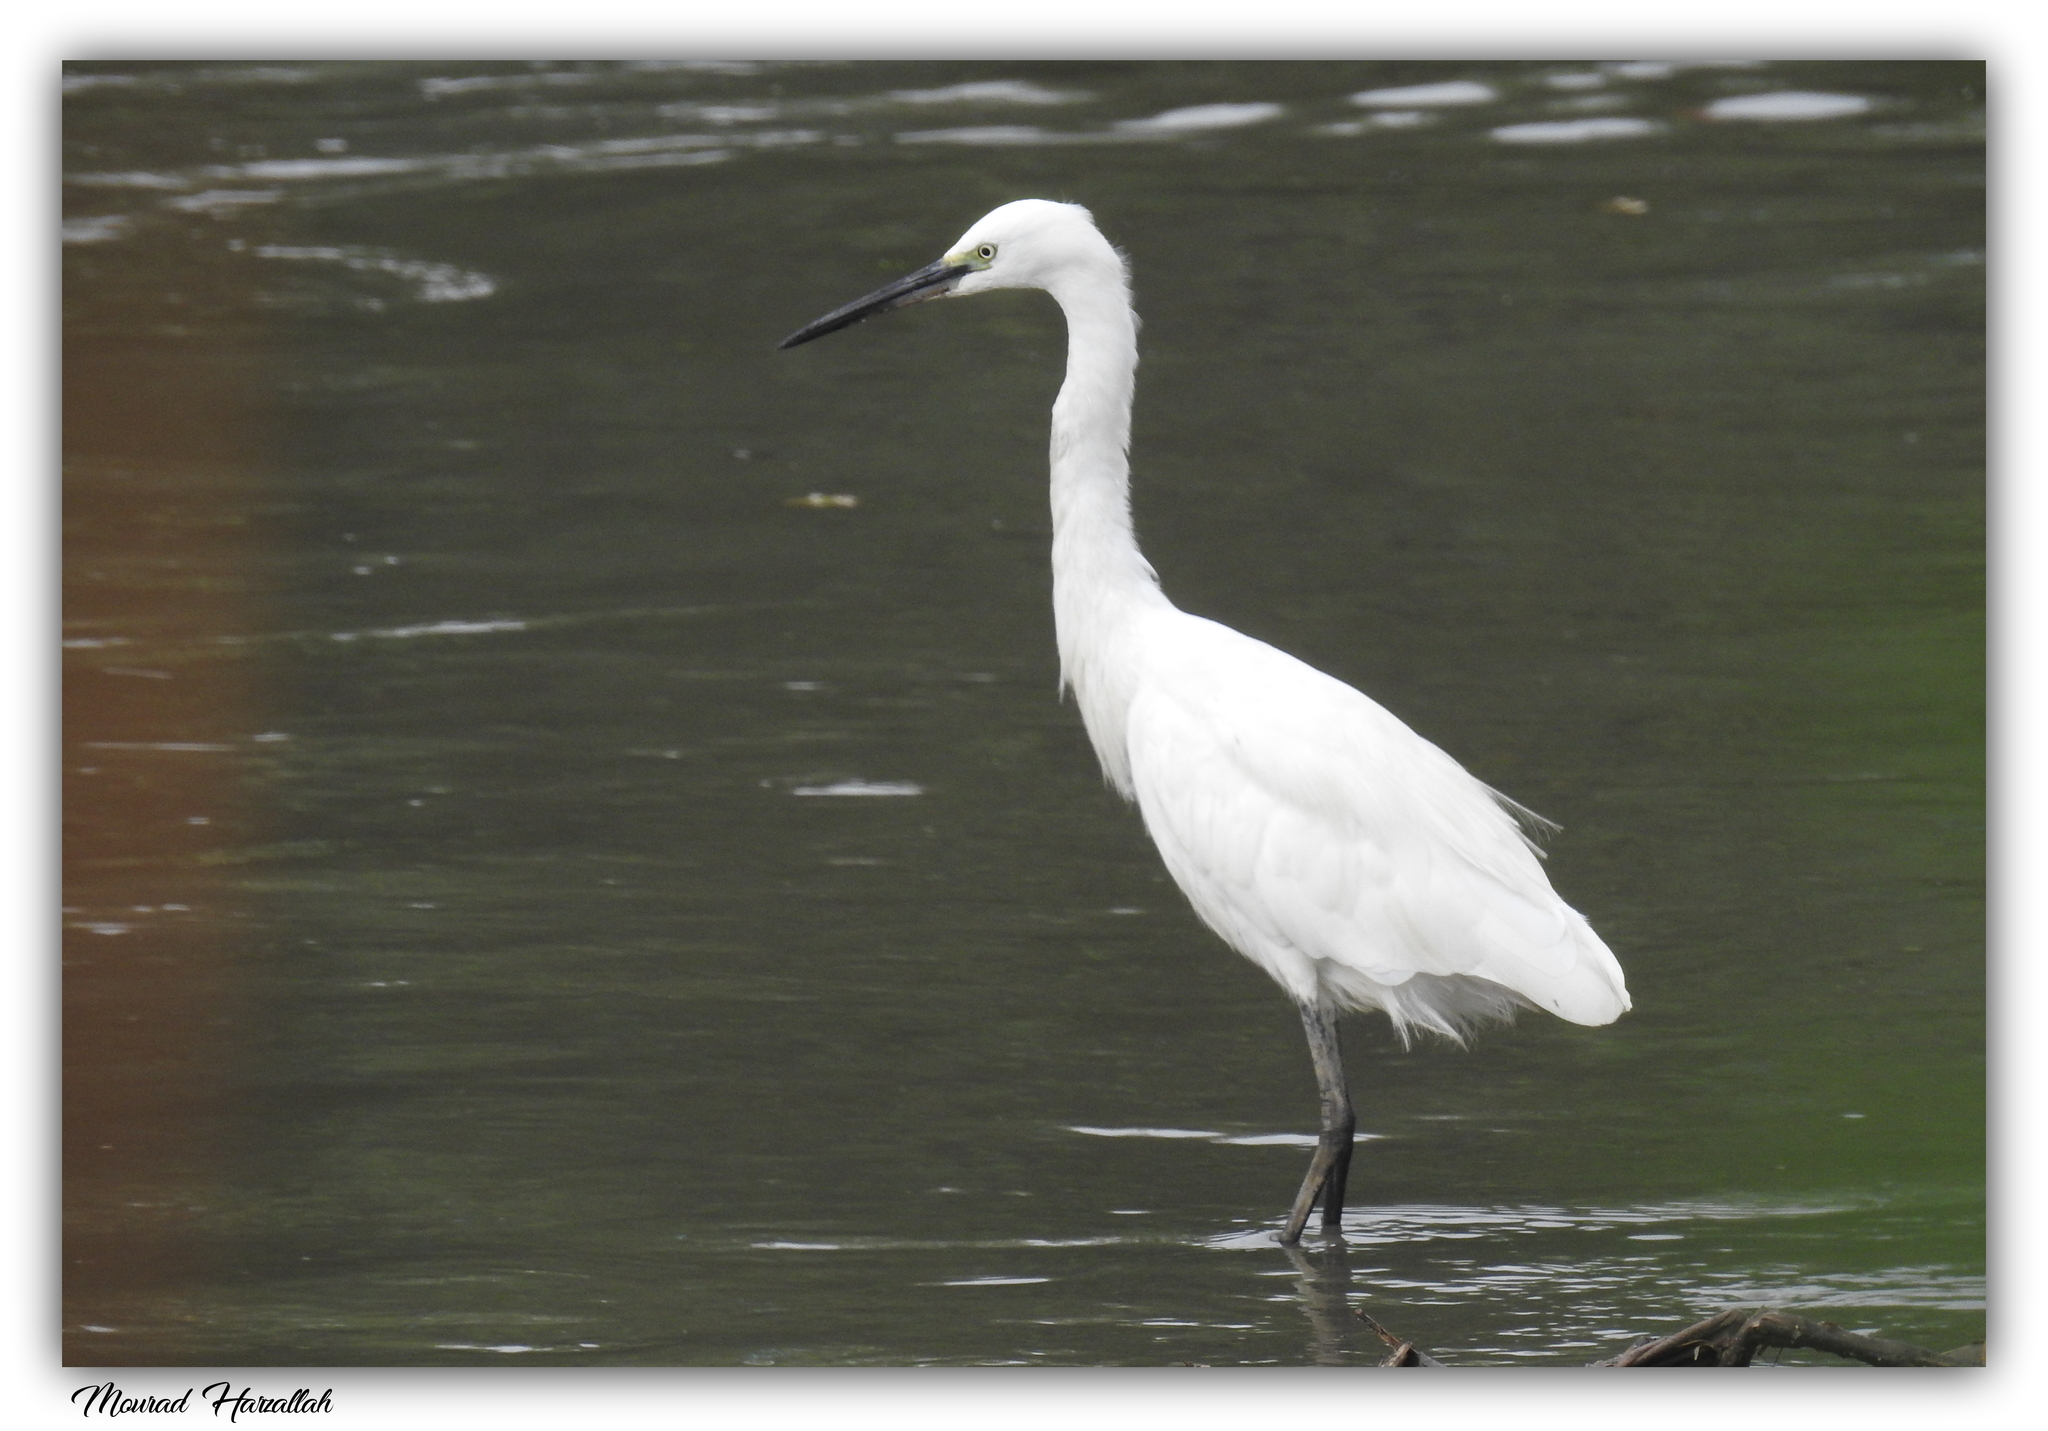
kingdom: Animalia
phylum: Chordata
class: Aves
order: Pelecaniformes
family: Ardeidae
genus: Egretta
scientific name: Egretta garzetta
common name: Little egret
